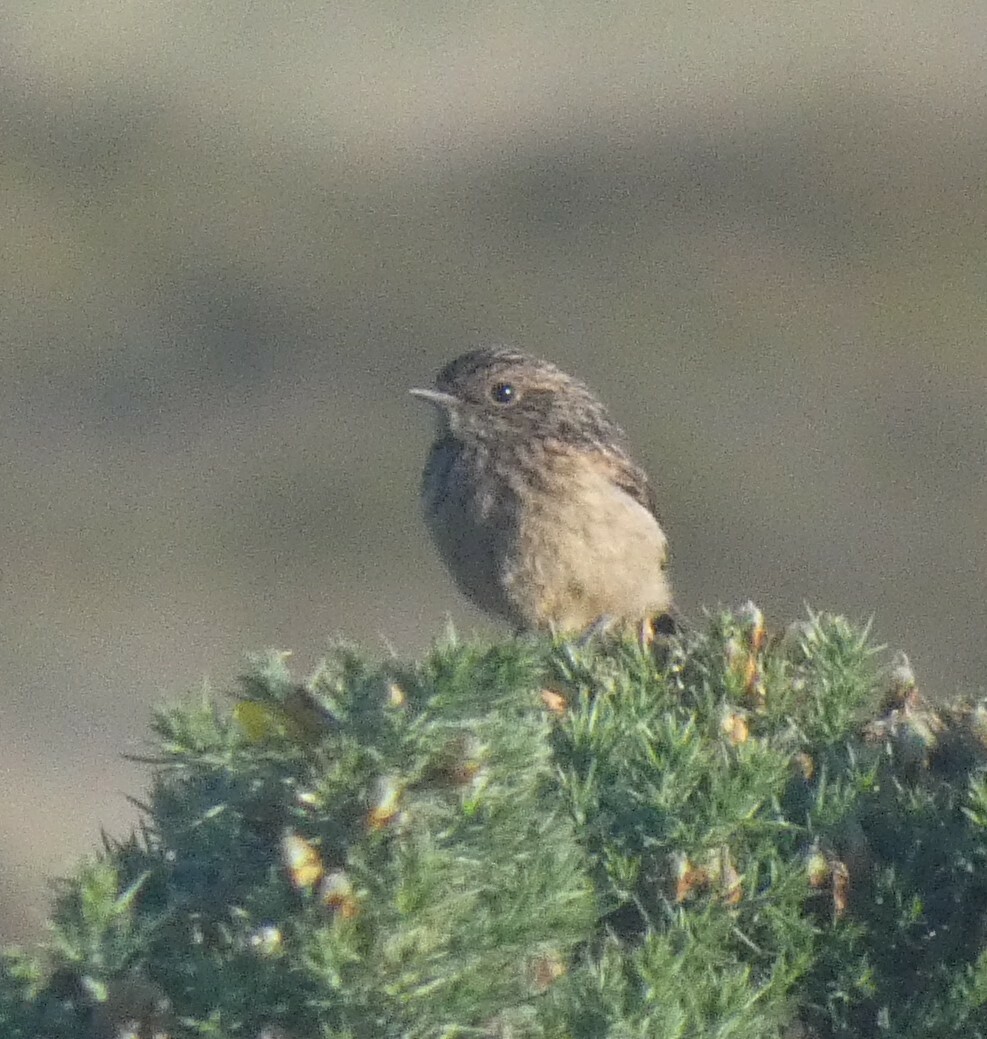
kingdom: Animalia
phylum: Chordata
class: Aves
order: Passeriformes
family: Muscicapidae
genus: Saxicola
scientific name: Saxicola rubicola
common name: European stonechat
